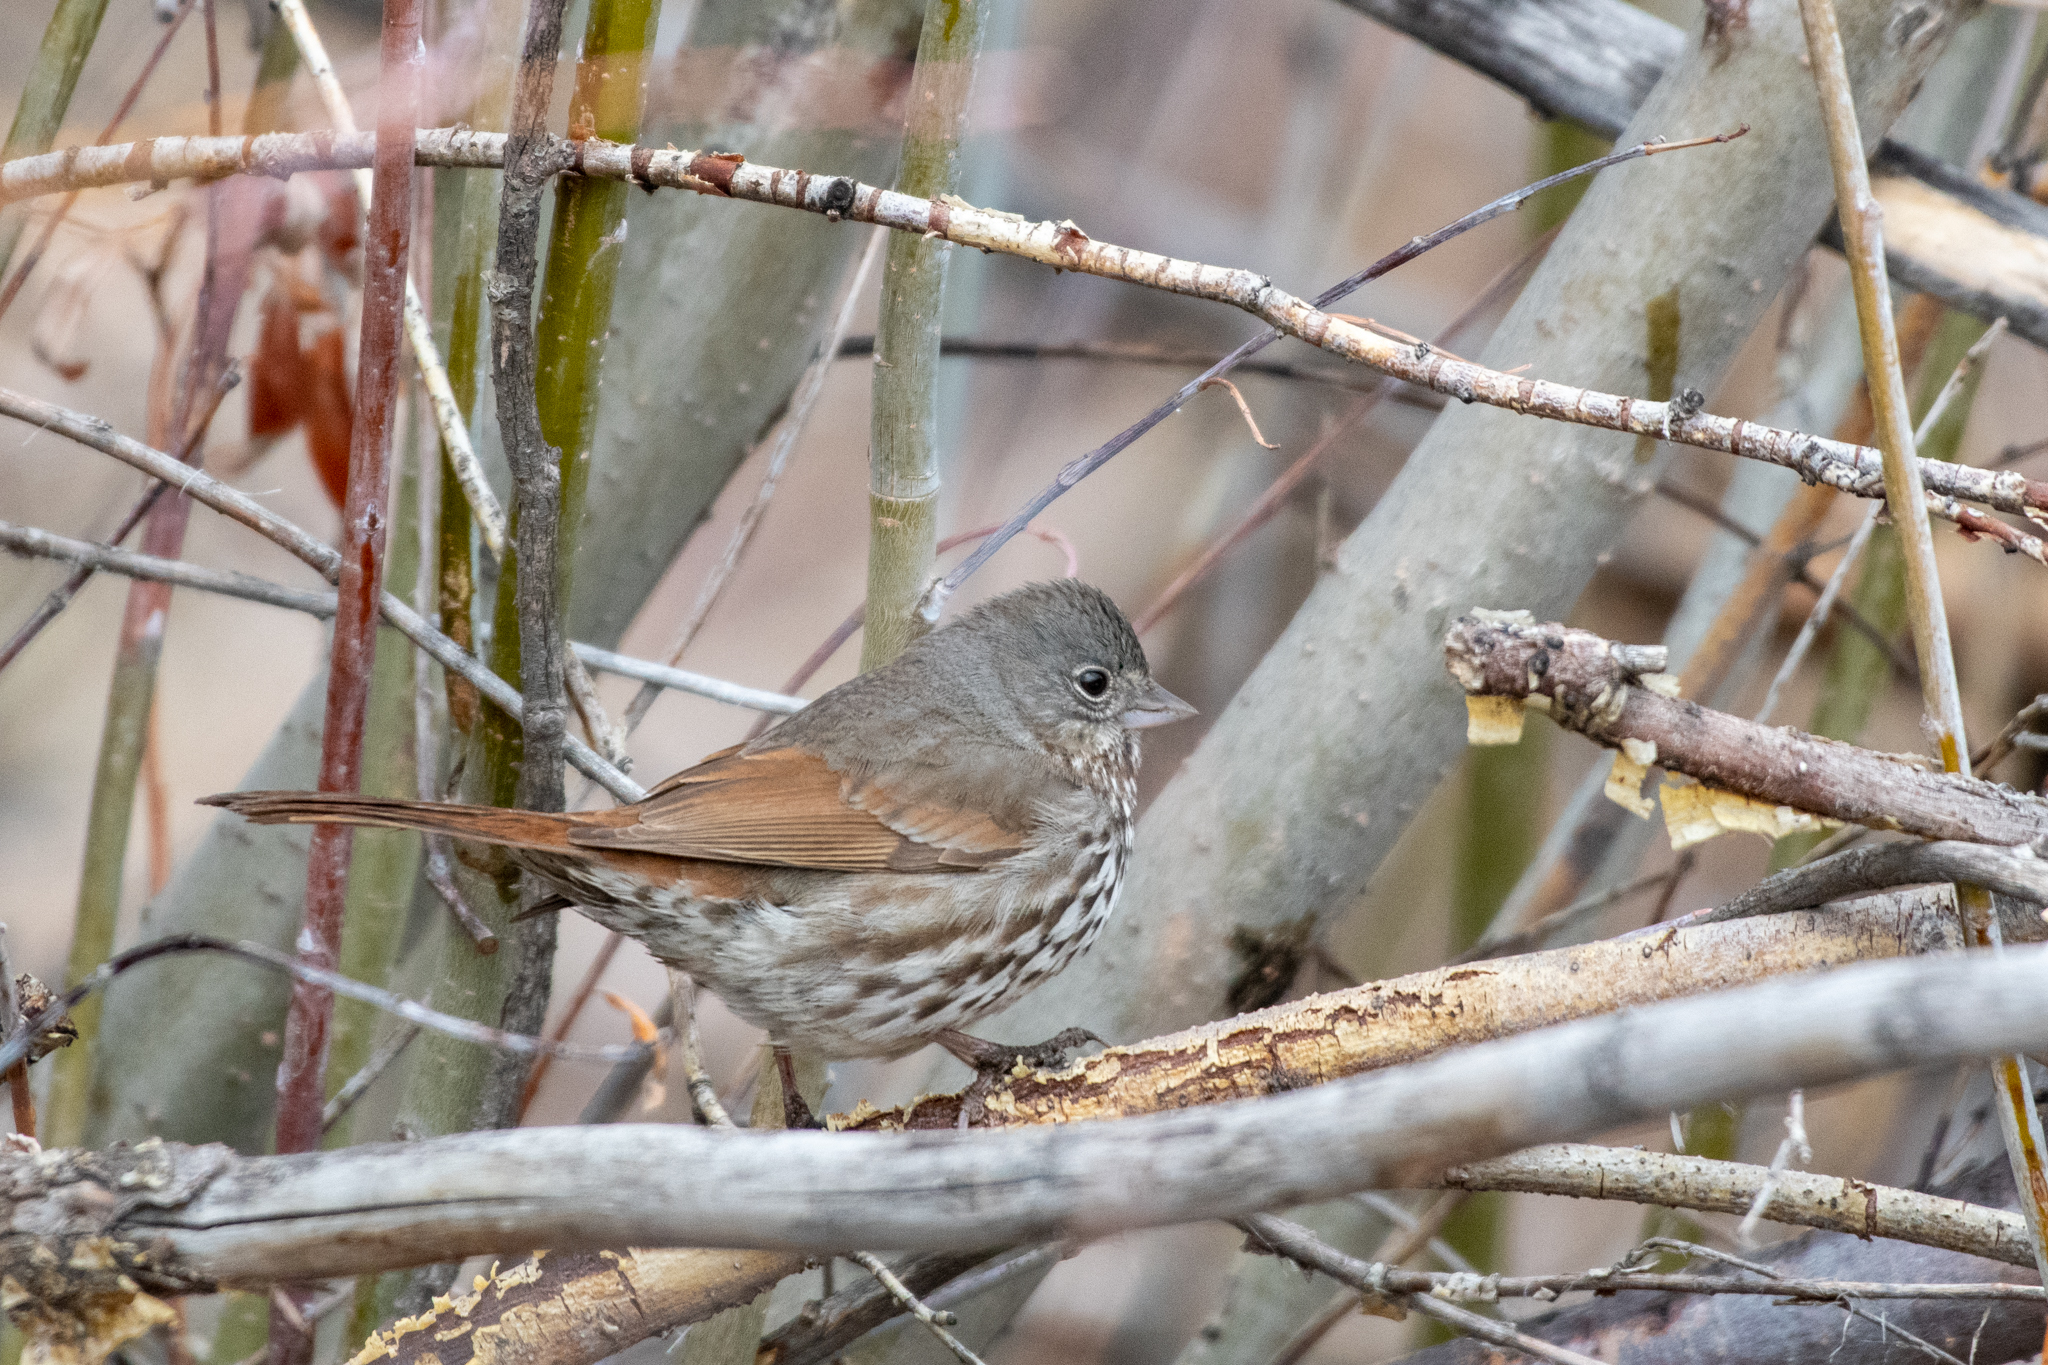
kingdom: Animalia
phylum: Chordata
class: Aves
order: Passeriformes
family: Passerellidae
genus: Passerella
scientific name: Passerella iliaca
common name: Fox sparrow
